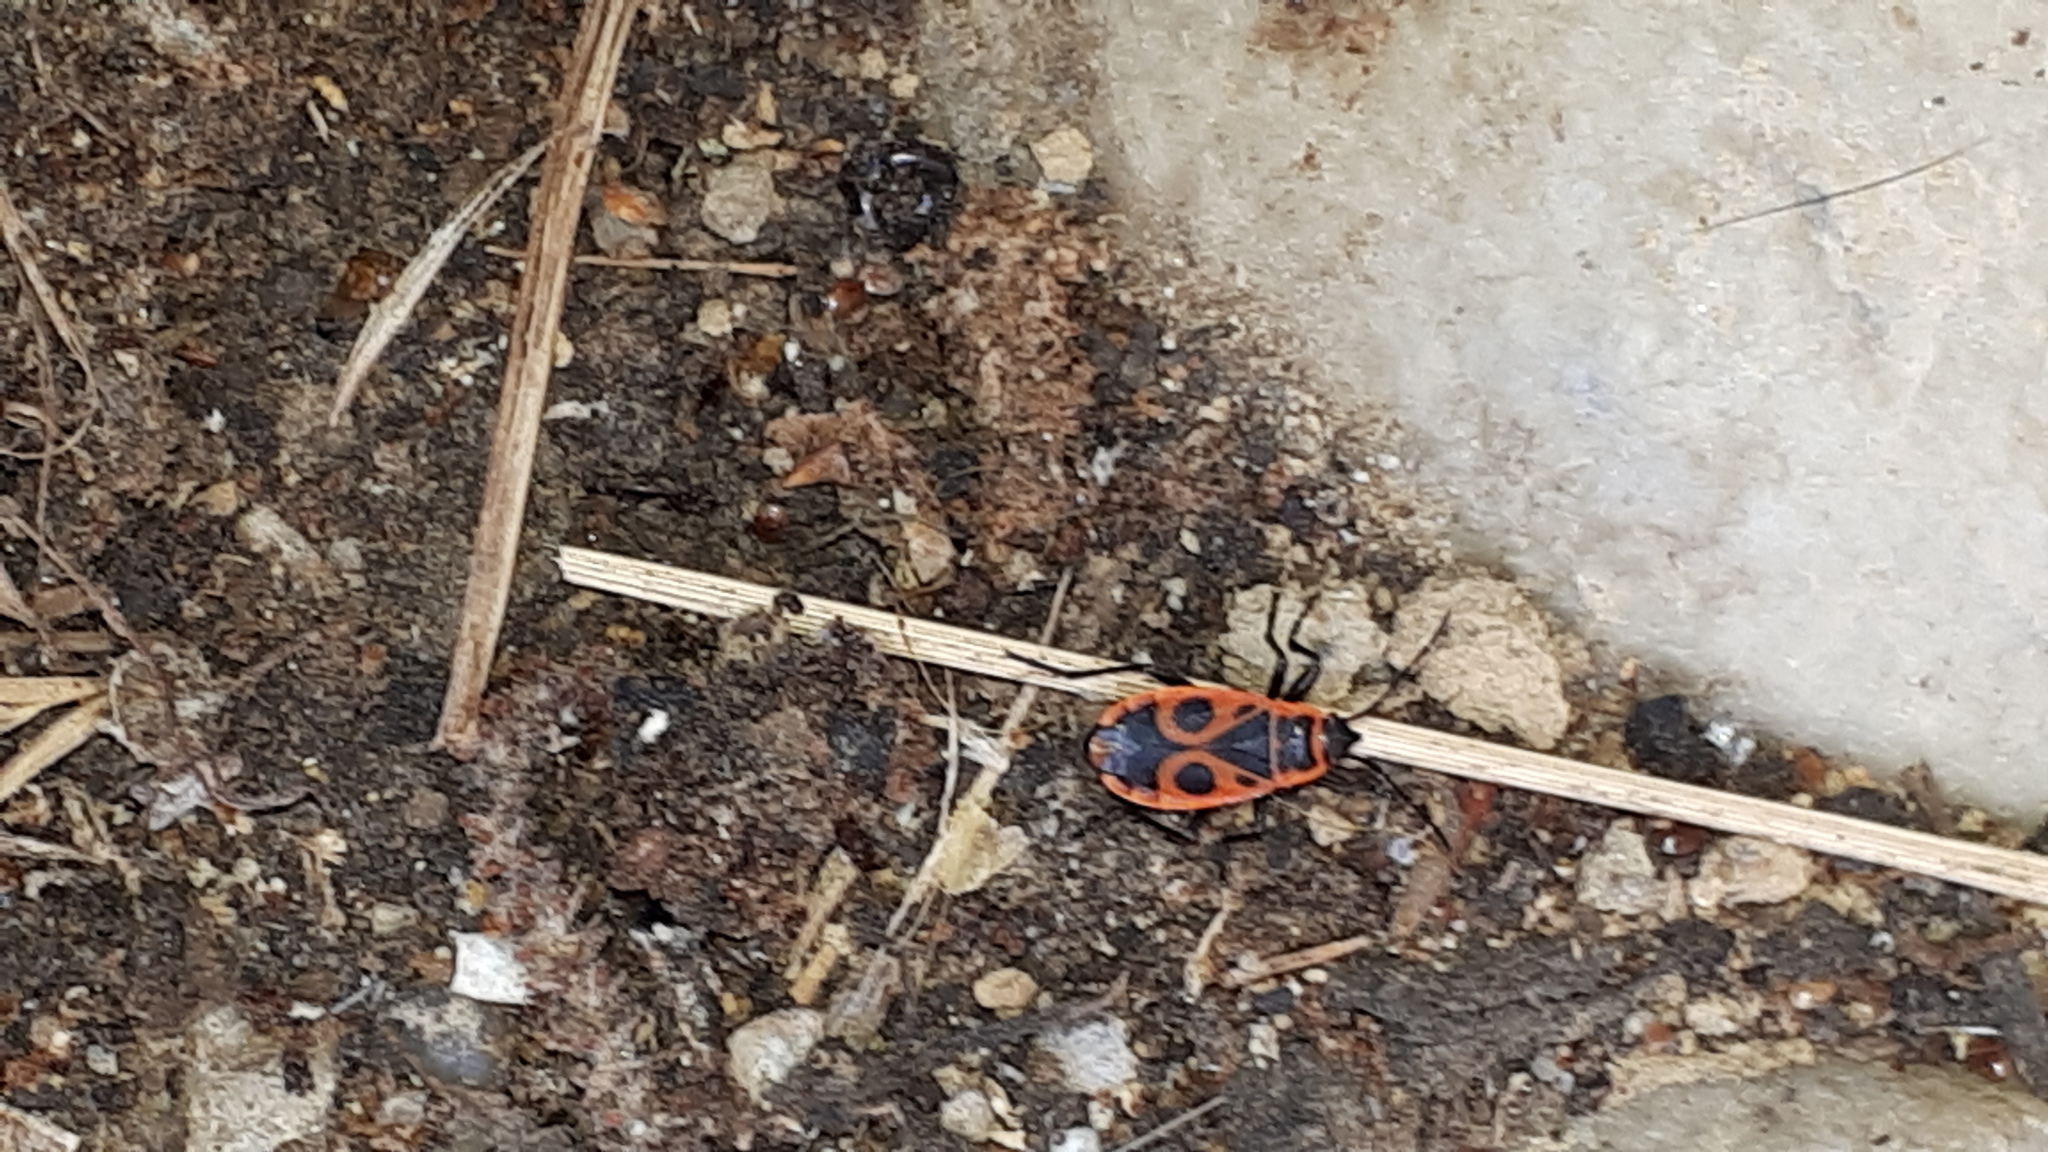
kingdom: Animalia
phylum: Arthropoda
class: Insecta
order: Hemiptera
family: Pyrrhocoridae
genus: Pyrrhocoris
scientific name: Pyrrhocoris apterus
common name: Firebug
